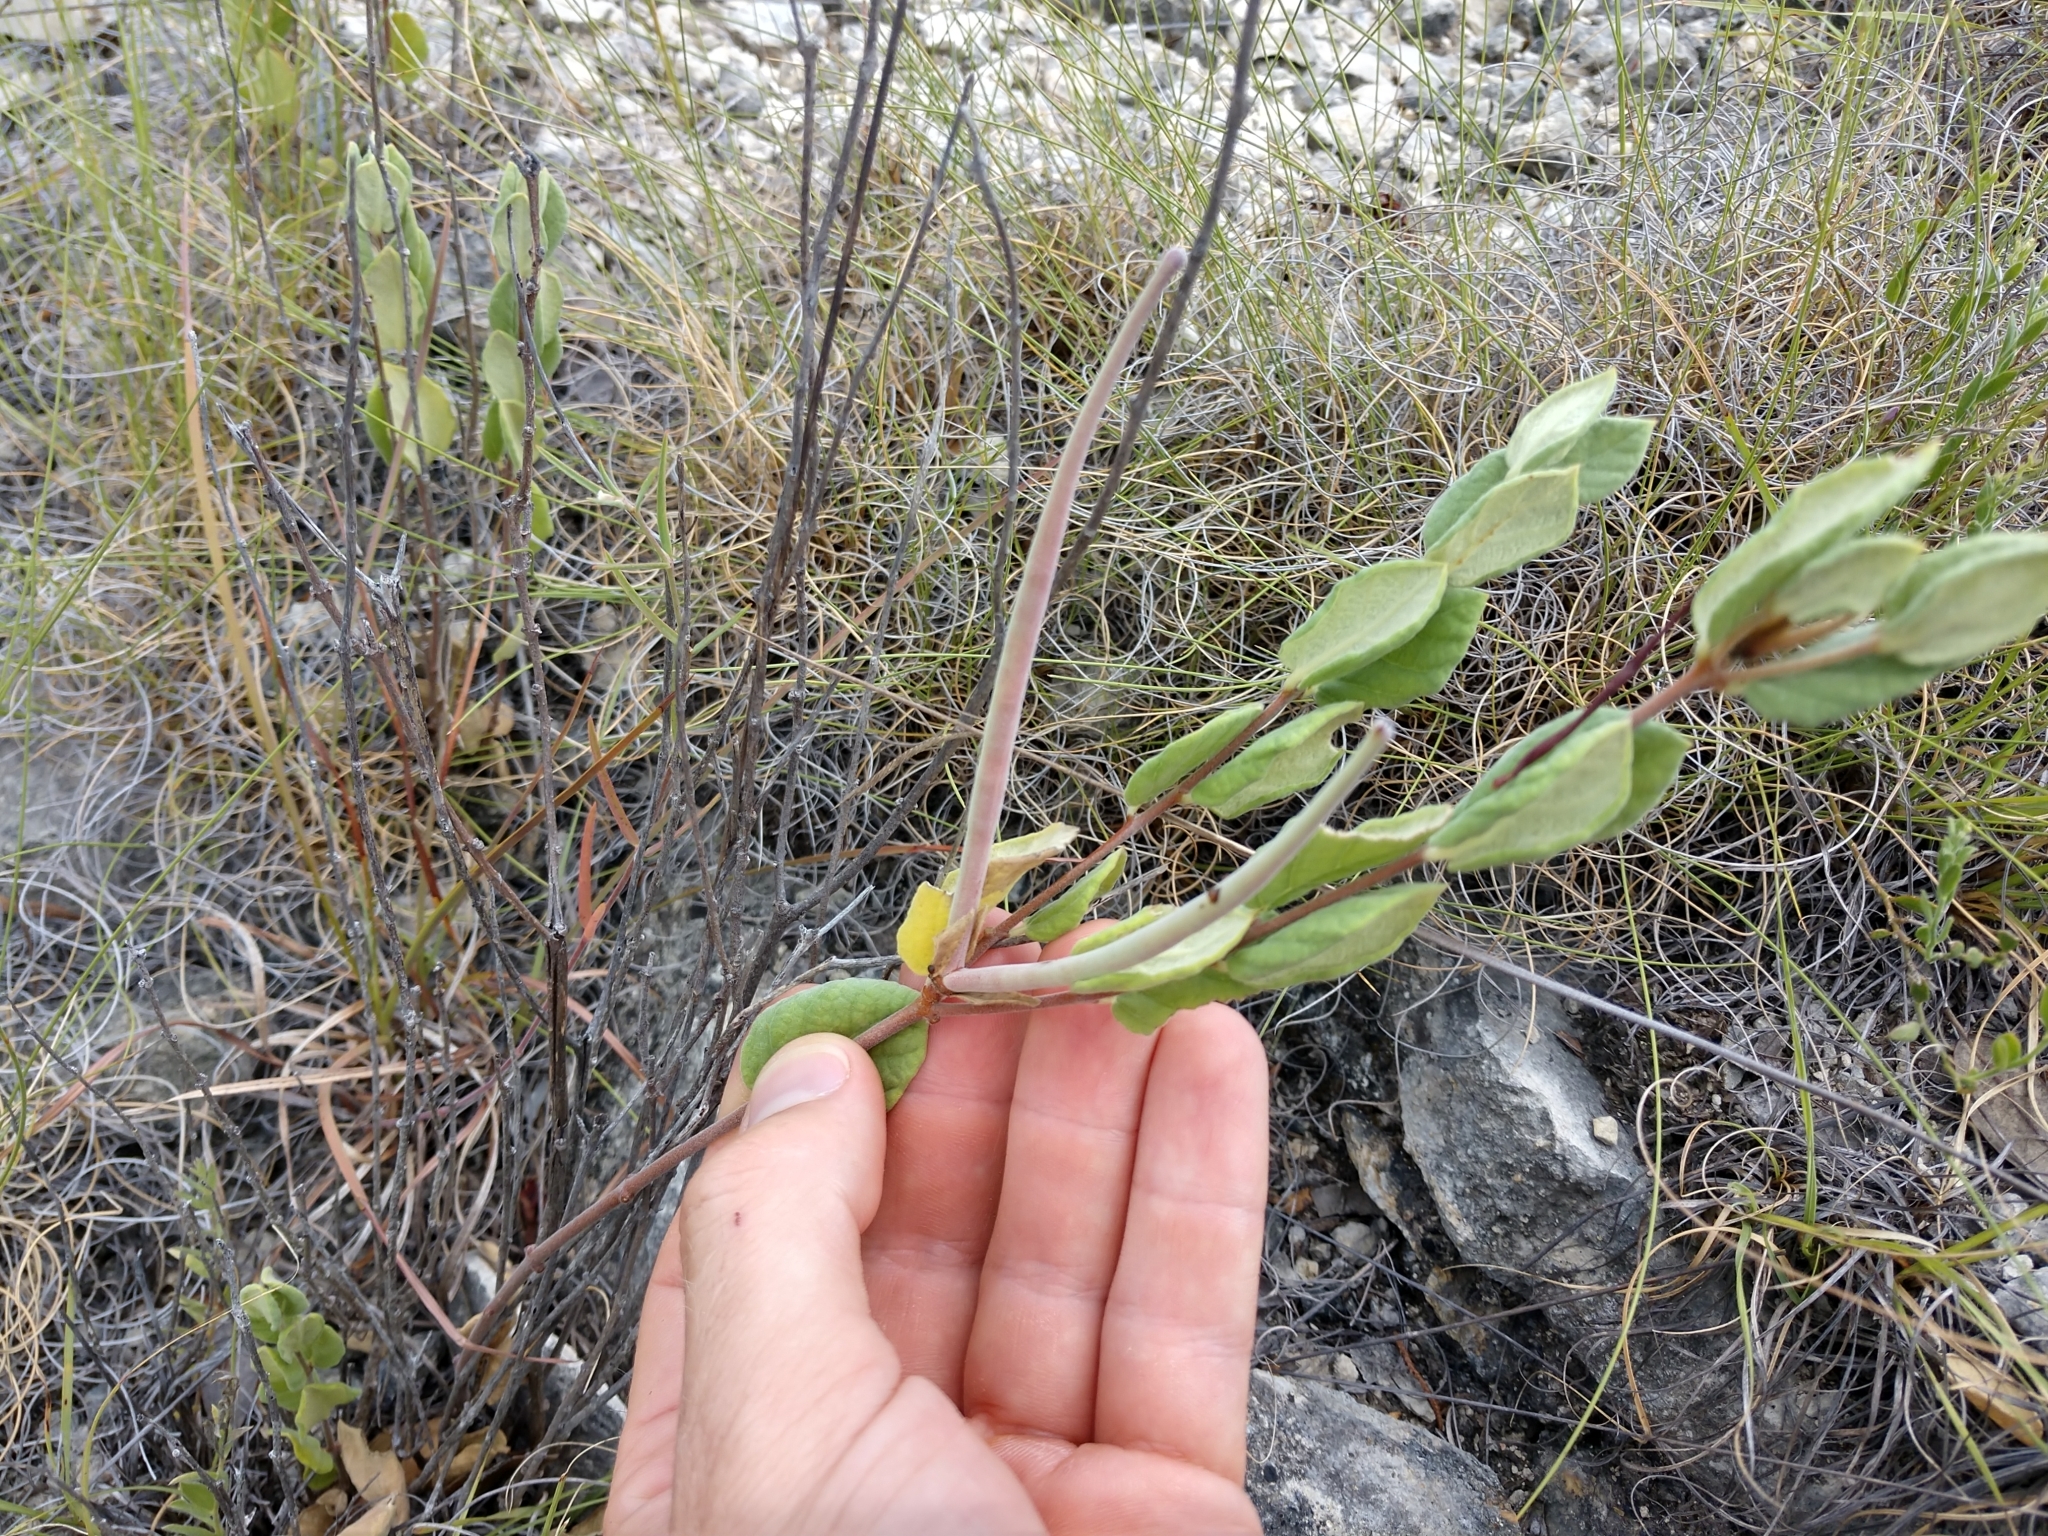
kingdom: Plantae
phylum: Tracheophyta
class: Magnoliopsida
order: Gentianales
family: Apocynaceae
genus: Mandevilla
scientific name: Mandevilla macrosiphon
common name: Plateau rocktrumpet
